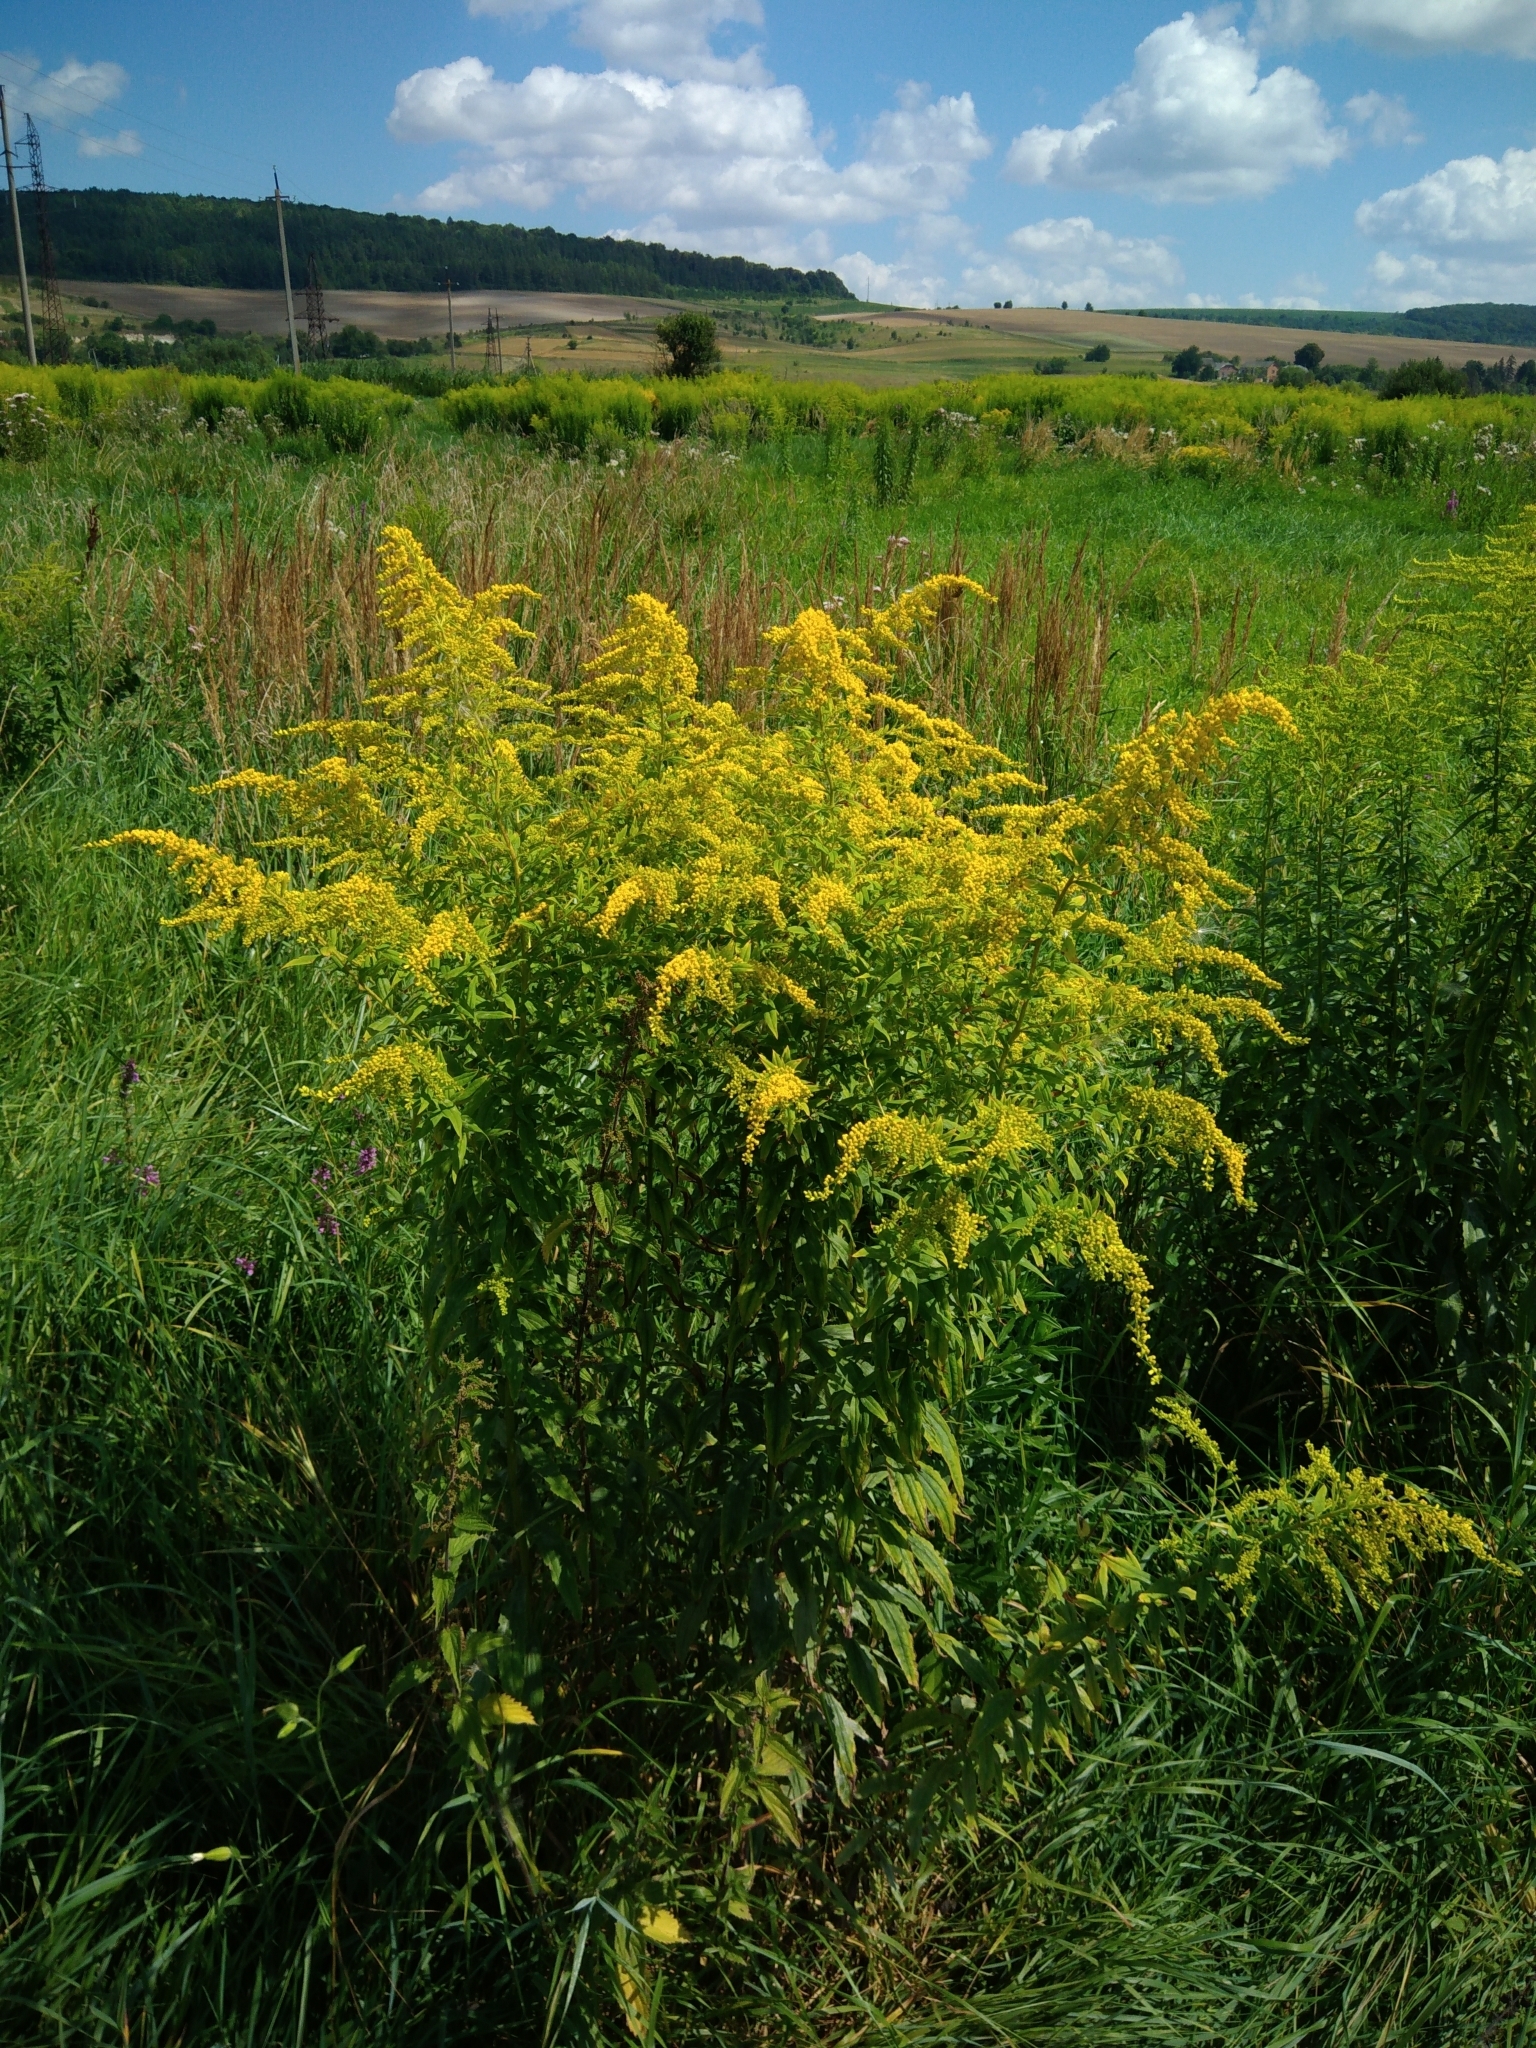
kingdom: Plantae
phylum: Tracheophyta
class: Magnoliopsida
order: Asterales
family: Asteraceae
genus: Solidago
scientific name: Solidago canadensis
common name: Canada goldenrod
